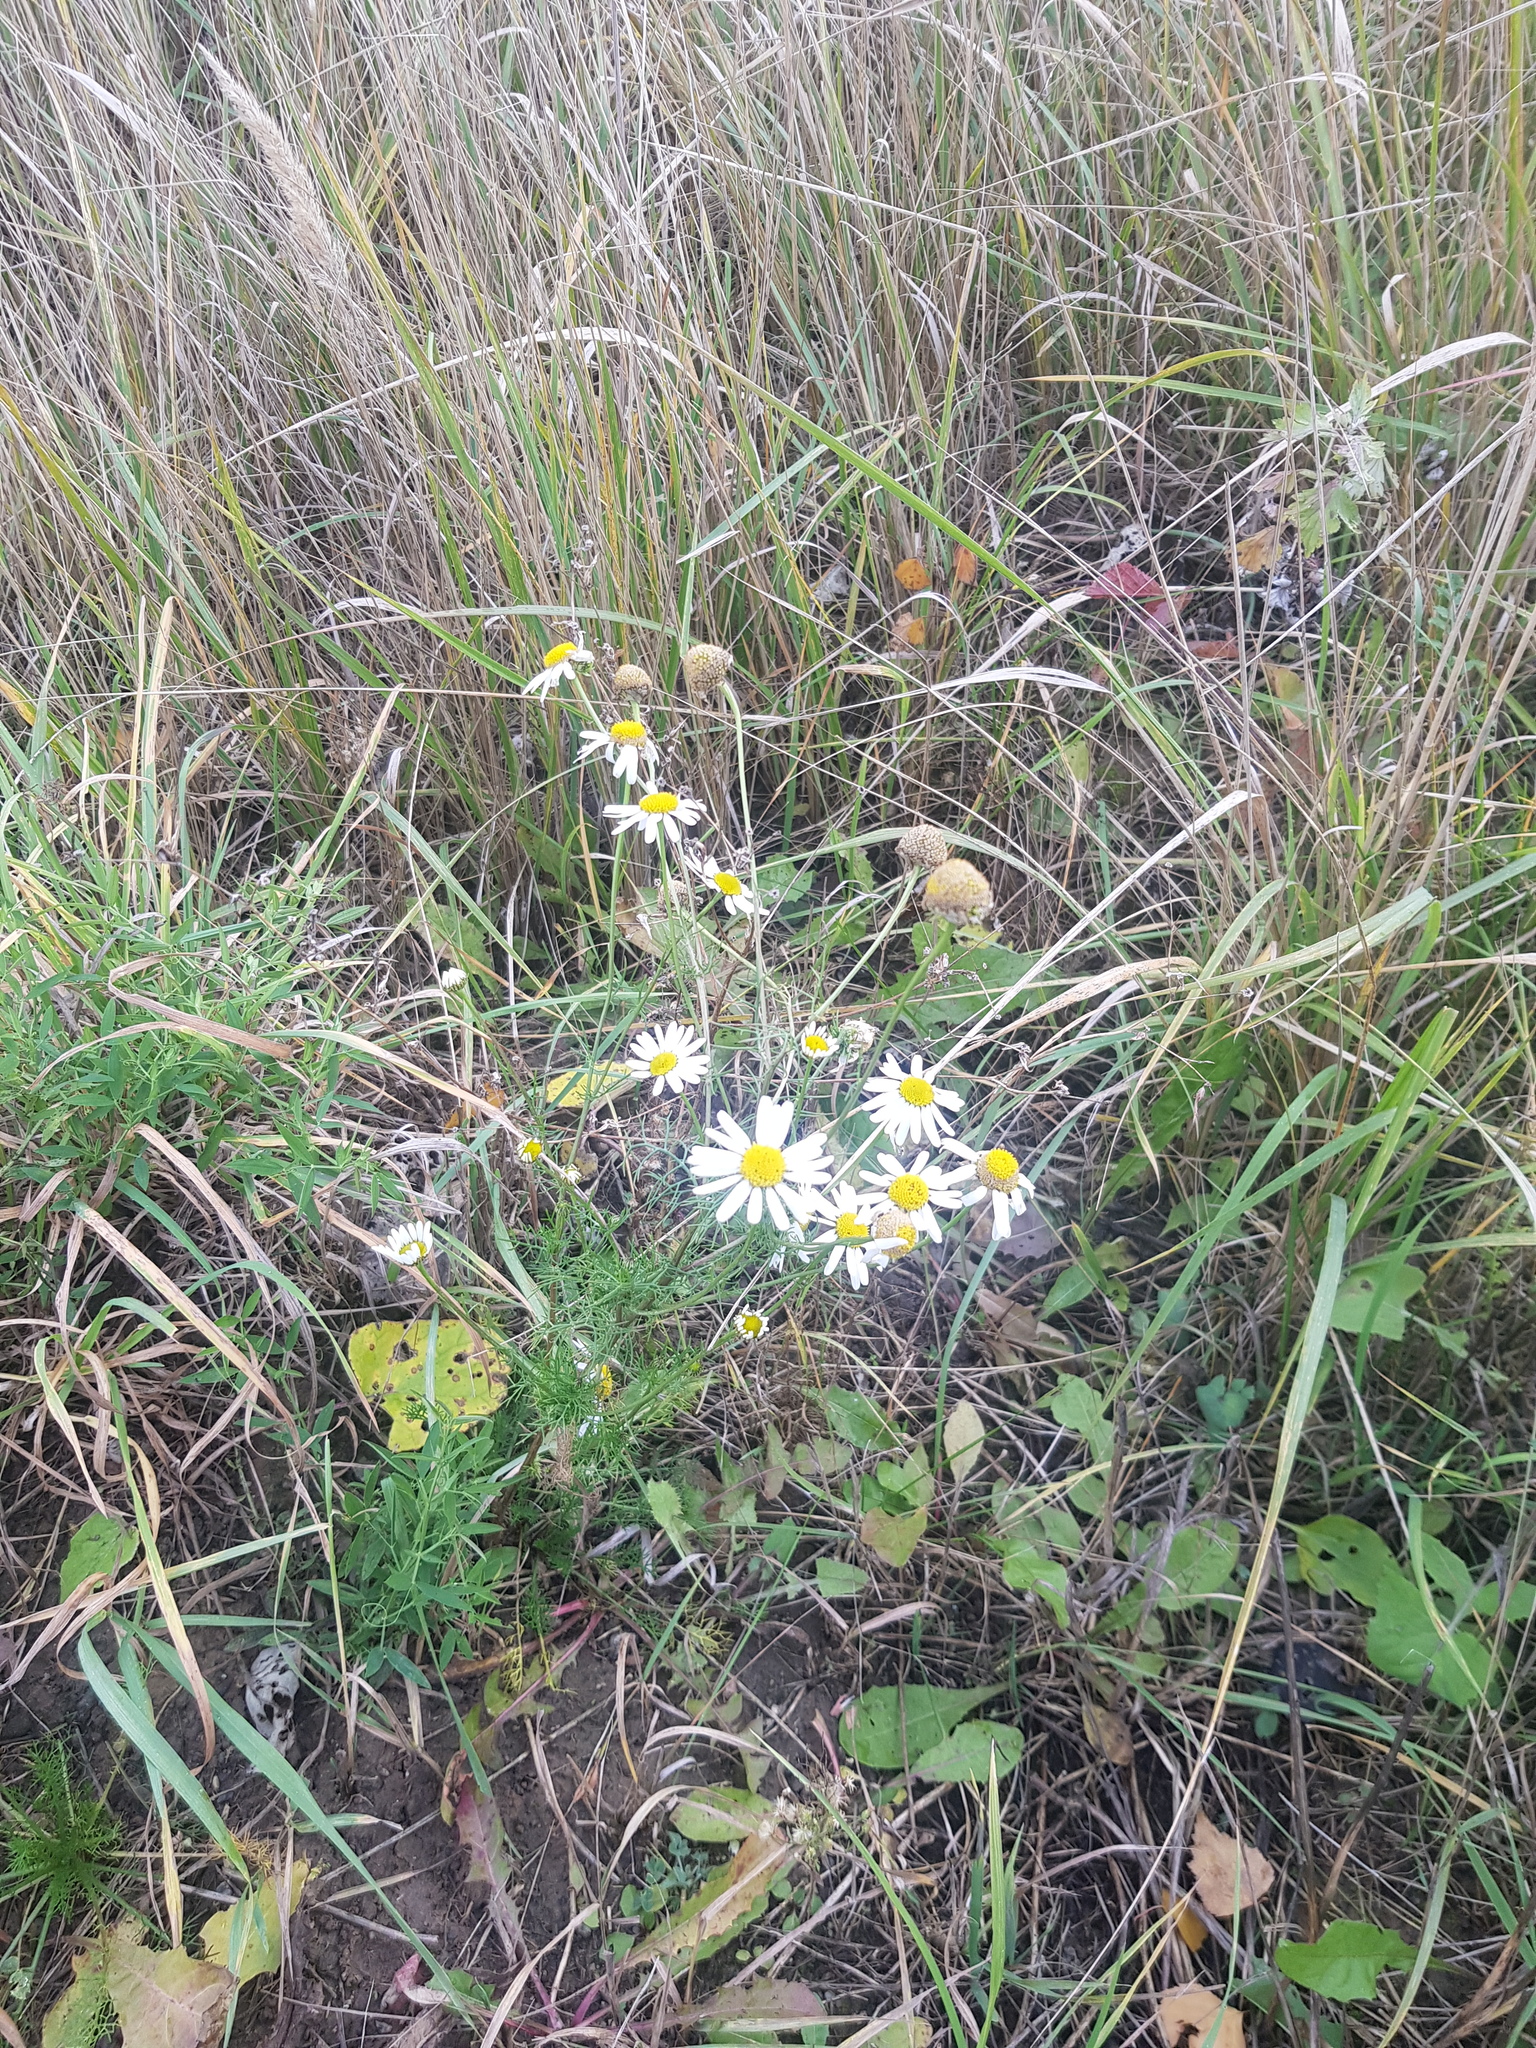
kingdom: Plantae
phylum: Tracheophyta
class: Magnoliopsida
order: Asterales
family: Asteraceae
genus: Tripleurospermum
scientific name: Tripleurospermum inodorum
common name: Scentless mayweed
